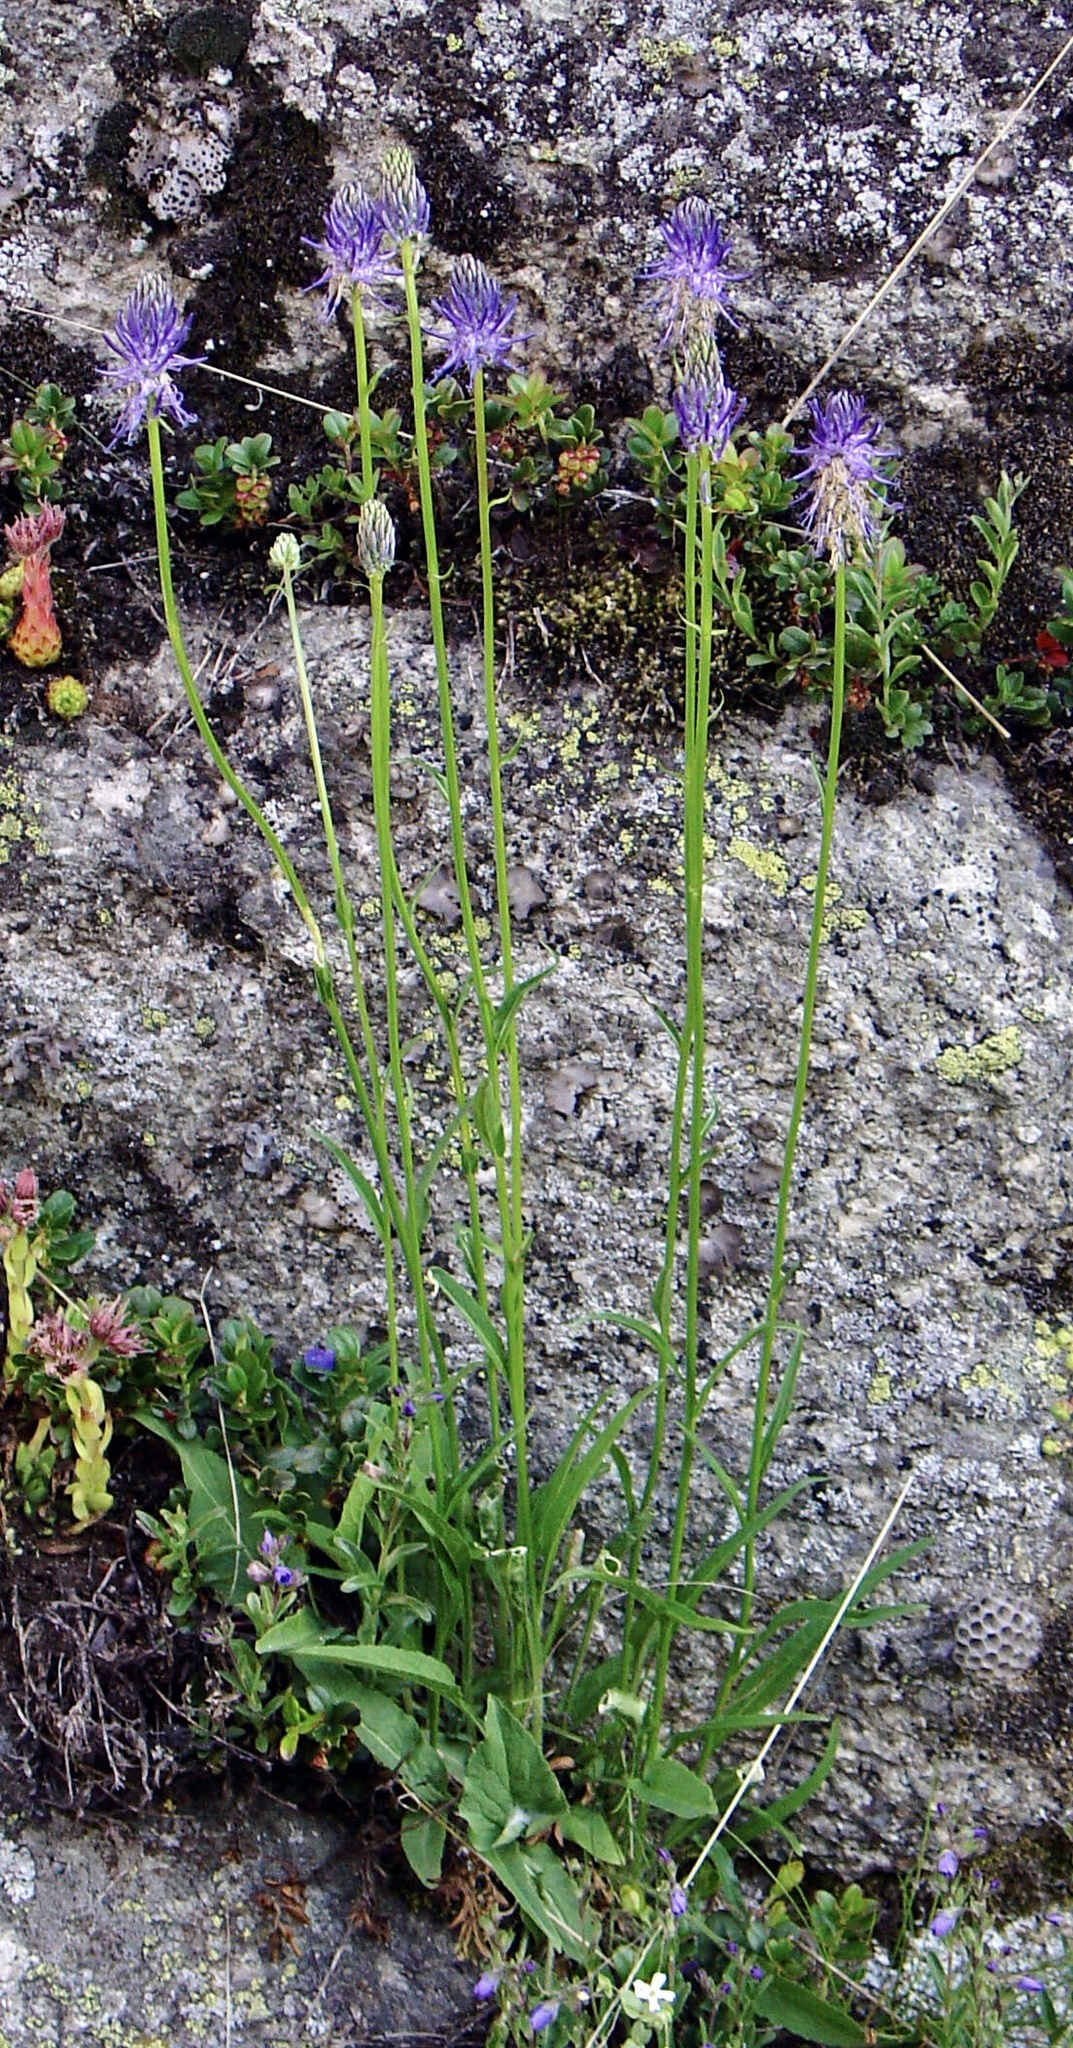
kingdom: Plantae
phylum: Tracheophyta
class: Magnoliopsida
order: Asterales
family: Campanulaceae
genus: Phyteuma
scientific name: Phyteuma betonicifolium
